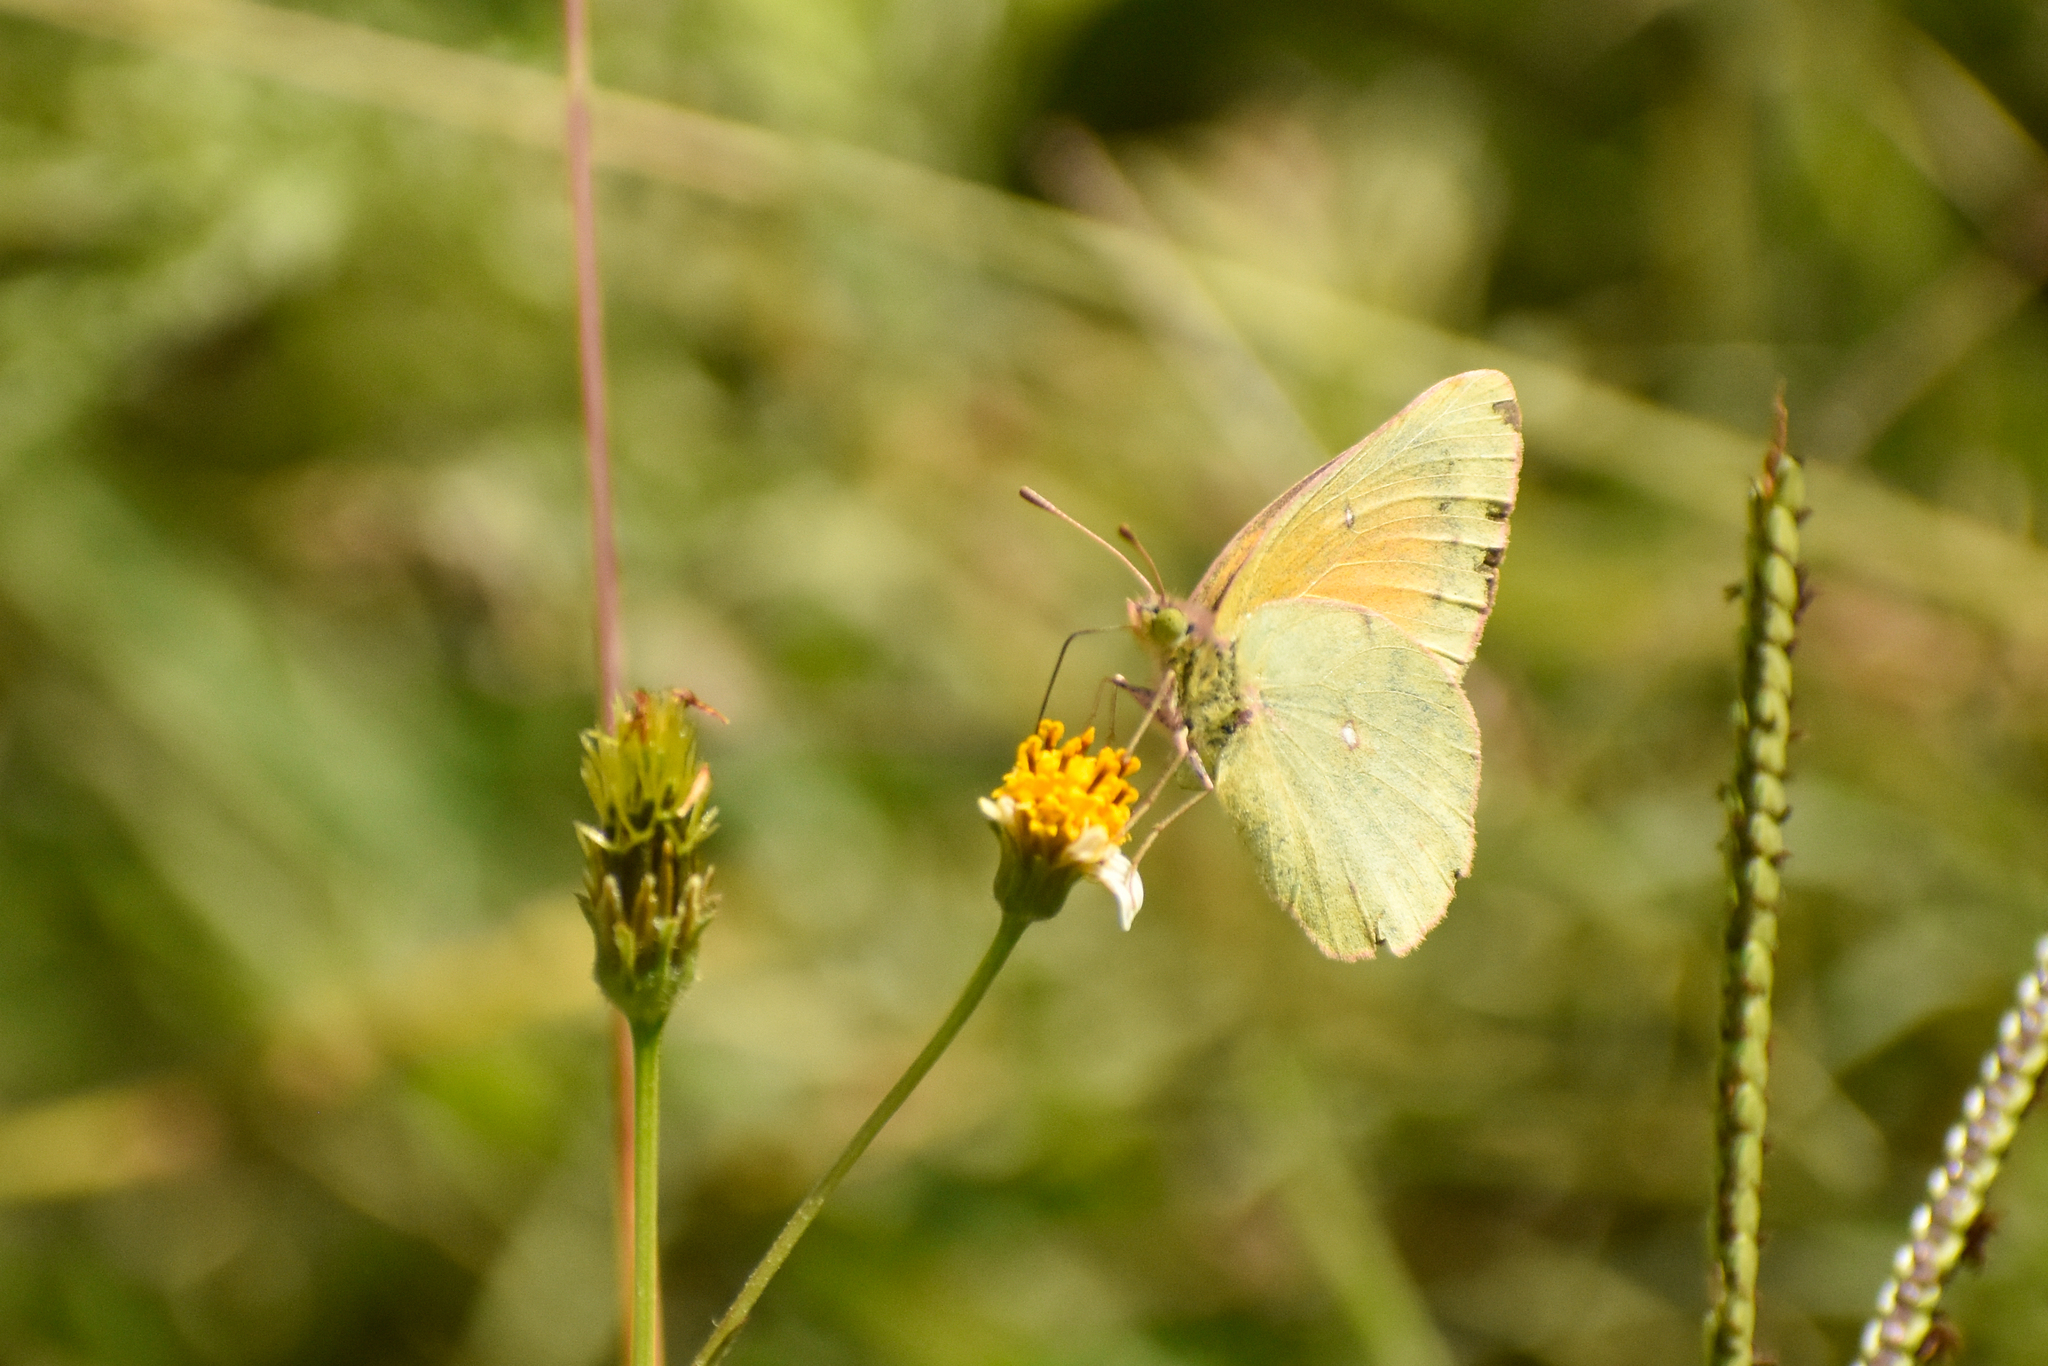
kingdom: Animalia
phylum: Arthropoda
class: Insecta
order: Lepidoptera
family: Pieridae
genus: Colias
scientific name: Colias lesbia
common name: Lesbia clouded yellow
